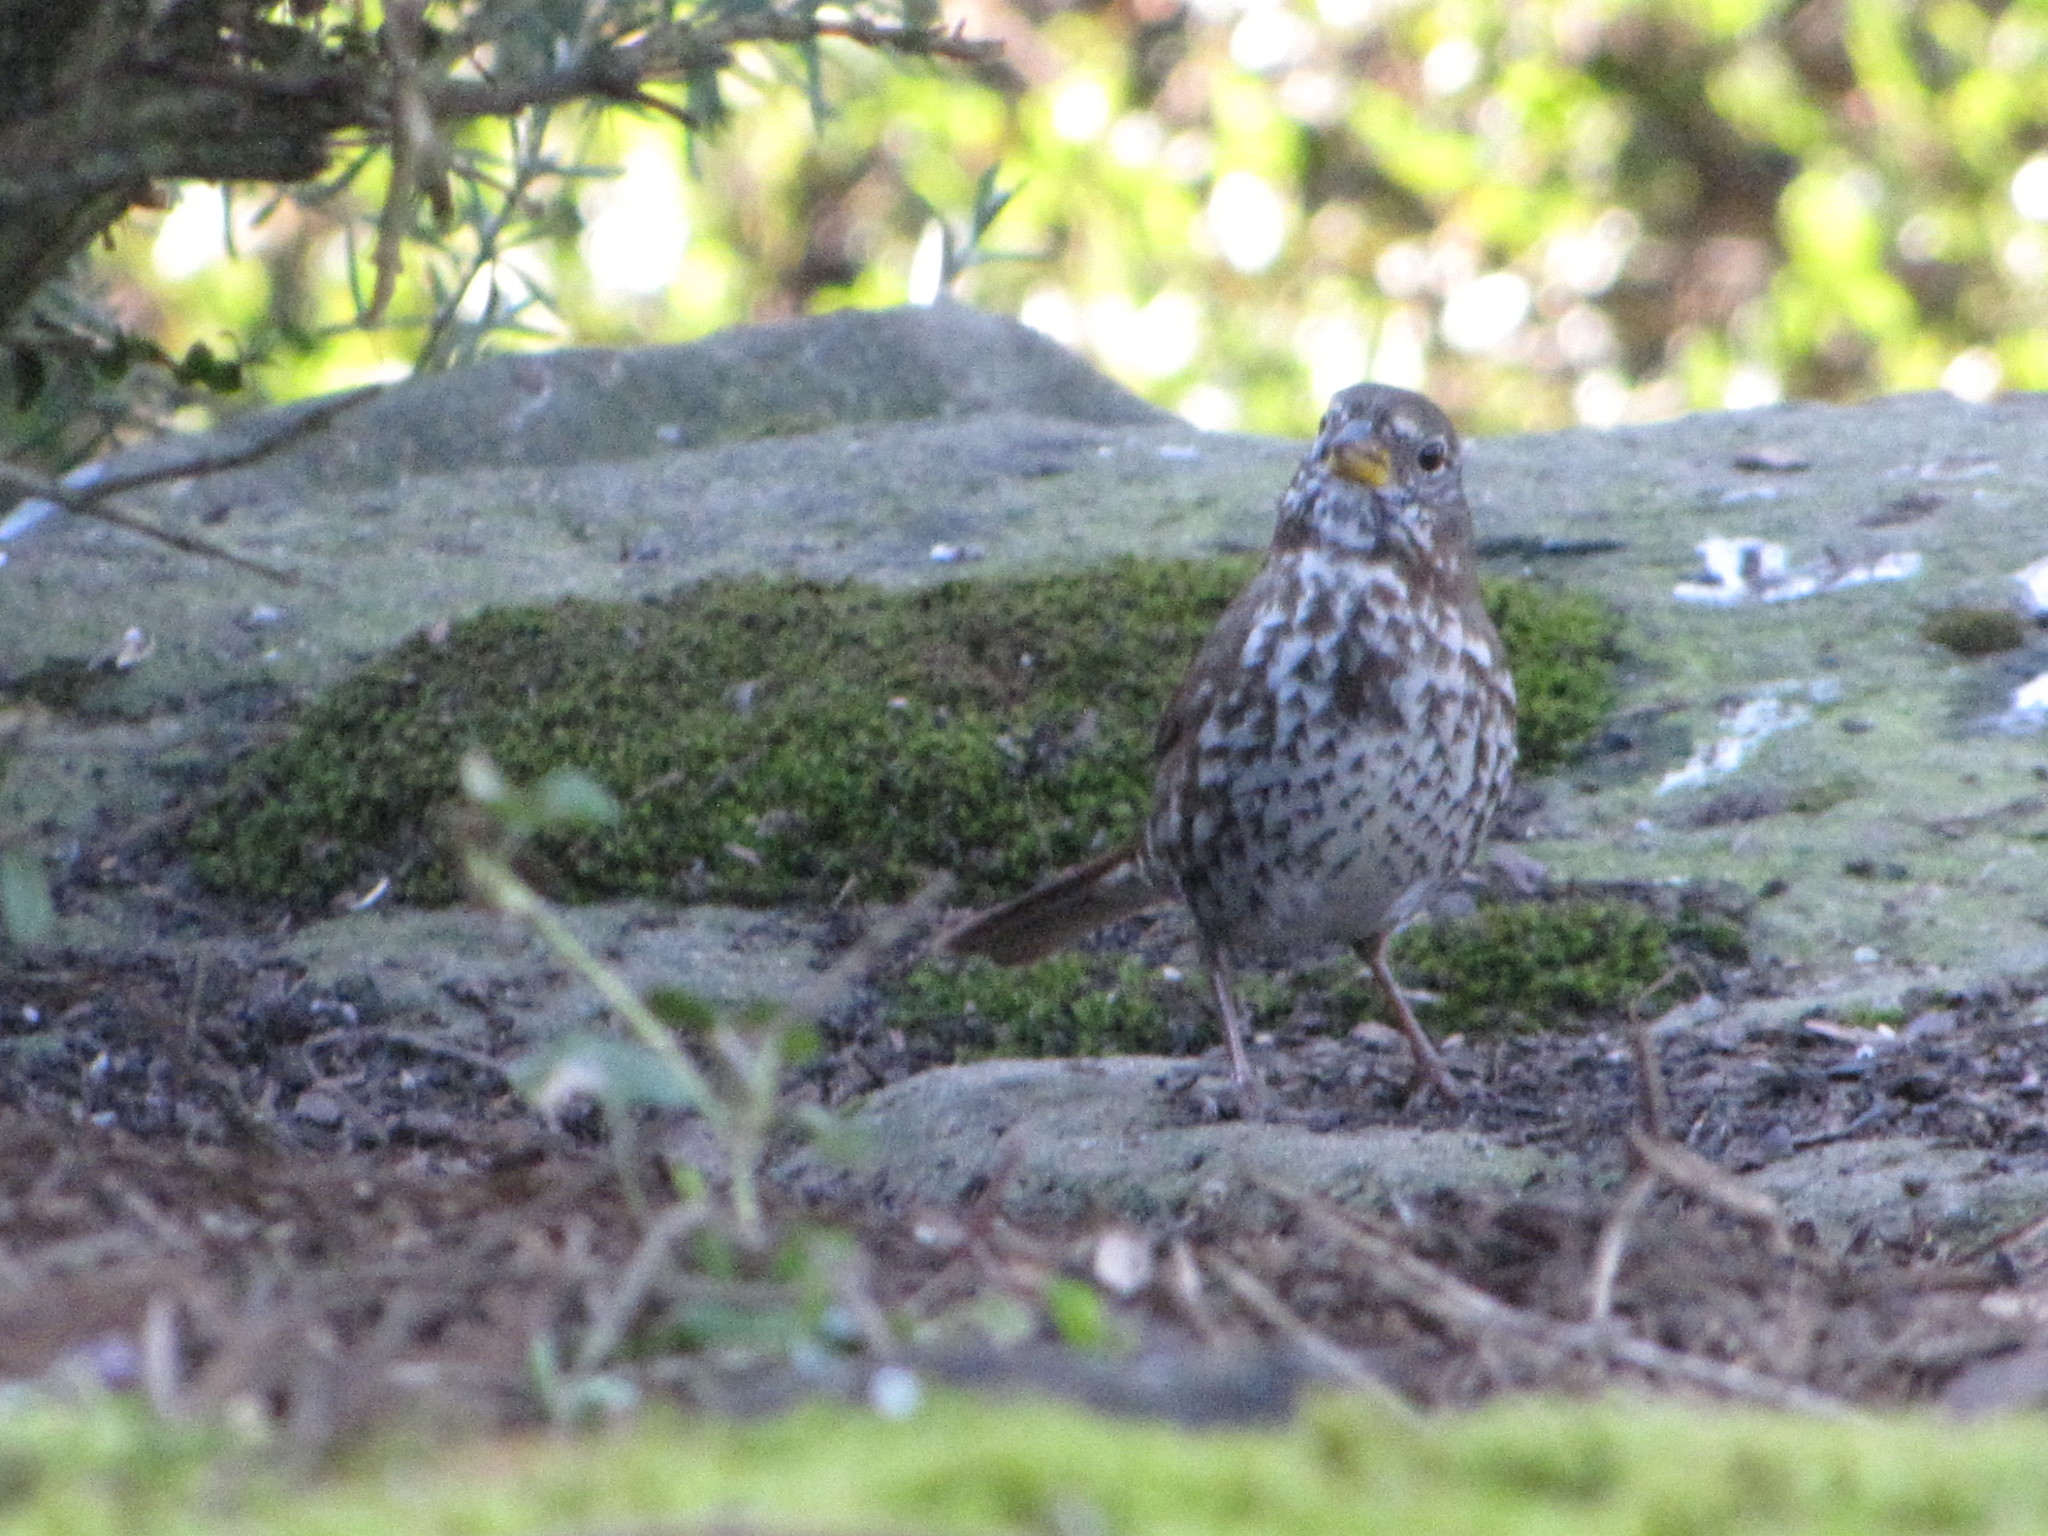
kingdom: Animalia
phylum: Chordata
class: Aves
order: Passeriformes
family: Passerellidae
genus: Passerella
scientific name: Passerella iliaca
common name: Fox sparrow
